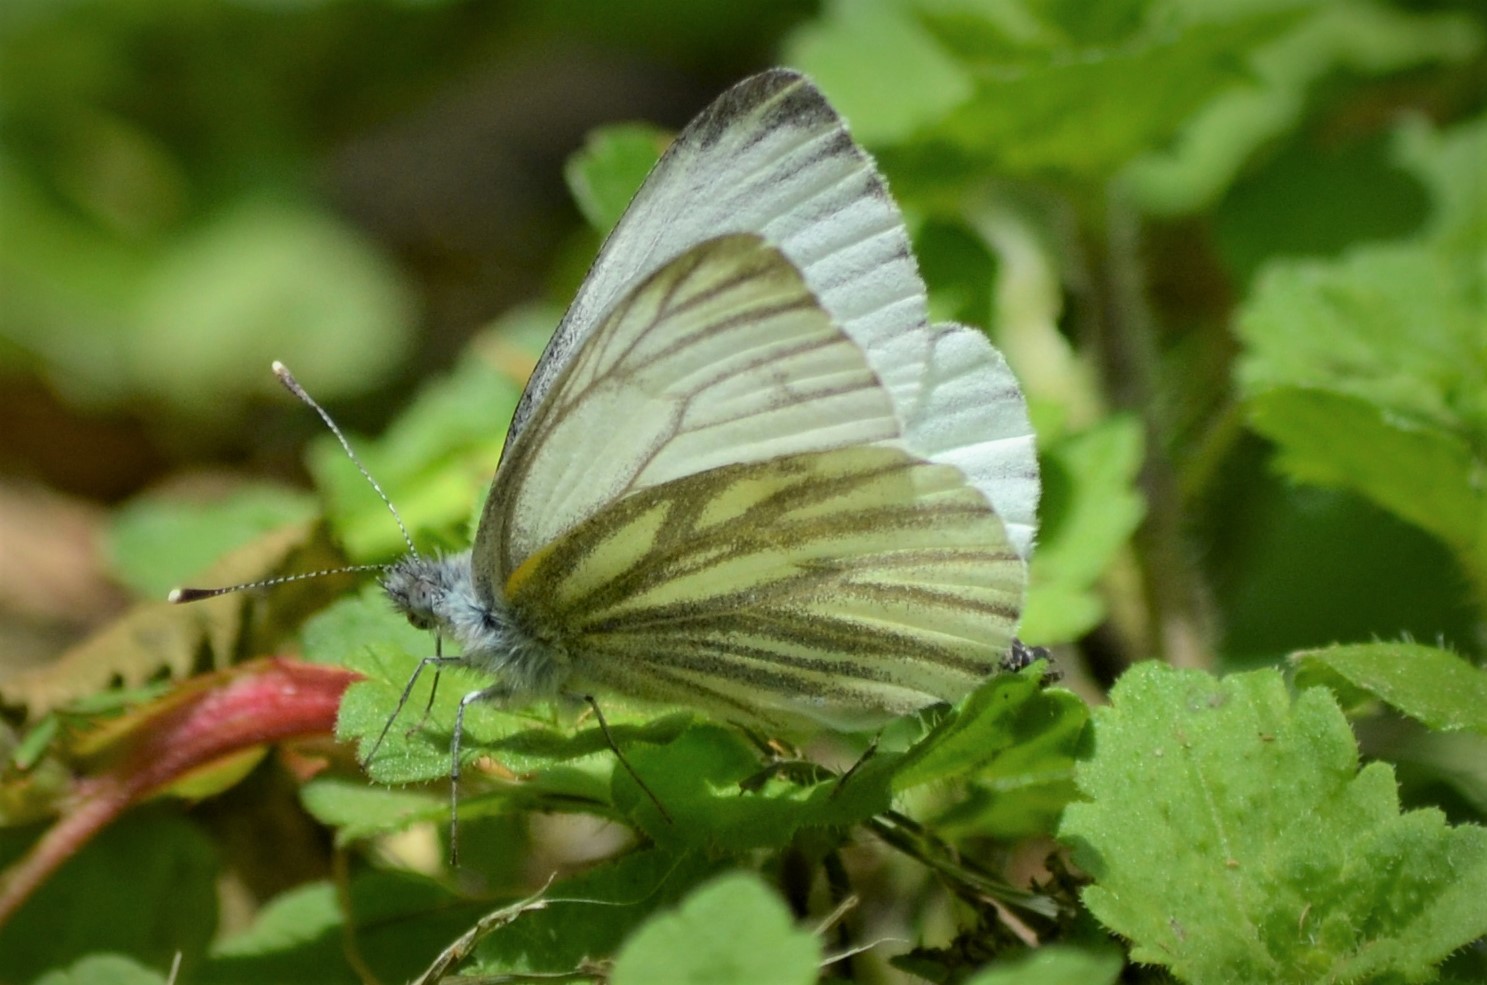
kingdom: Animalia
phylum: Arthropoda
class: Insecta
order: Lepidoptera
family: Pieridae
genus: Pieris
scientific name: Pieris napi
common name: Green-veined white
